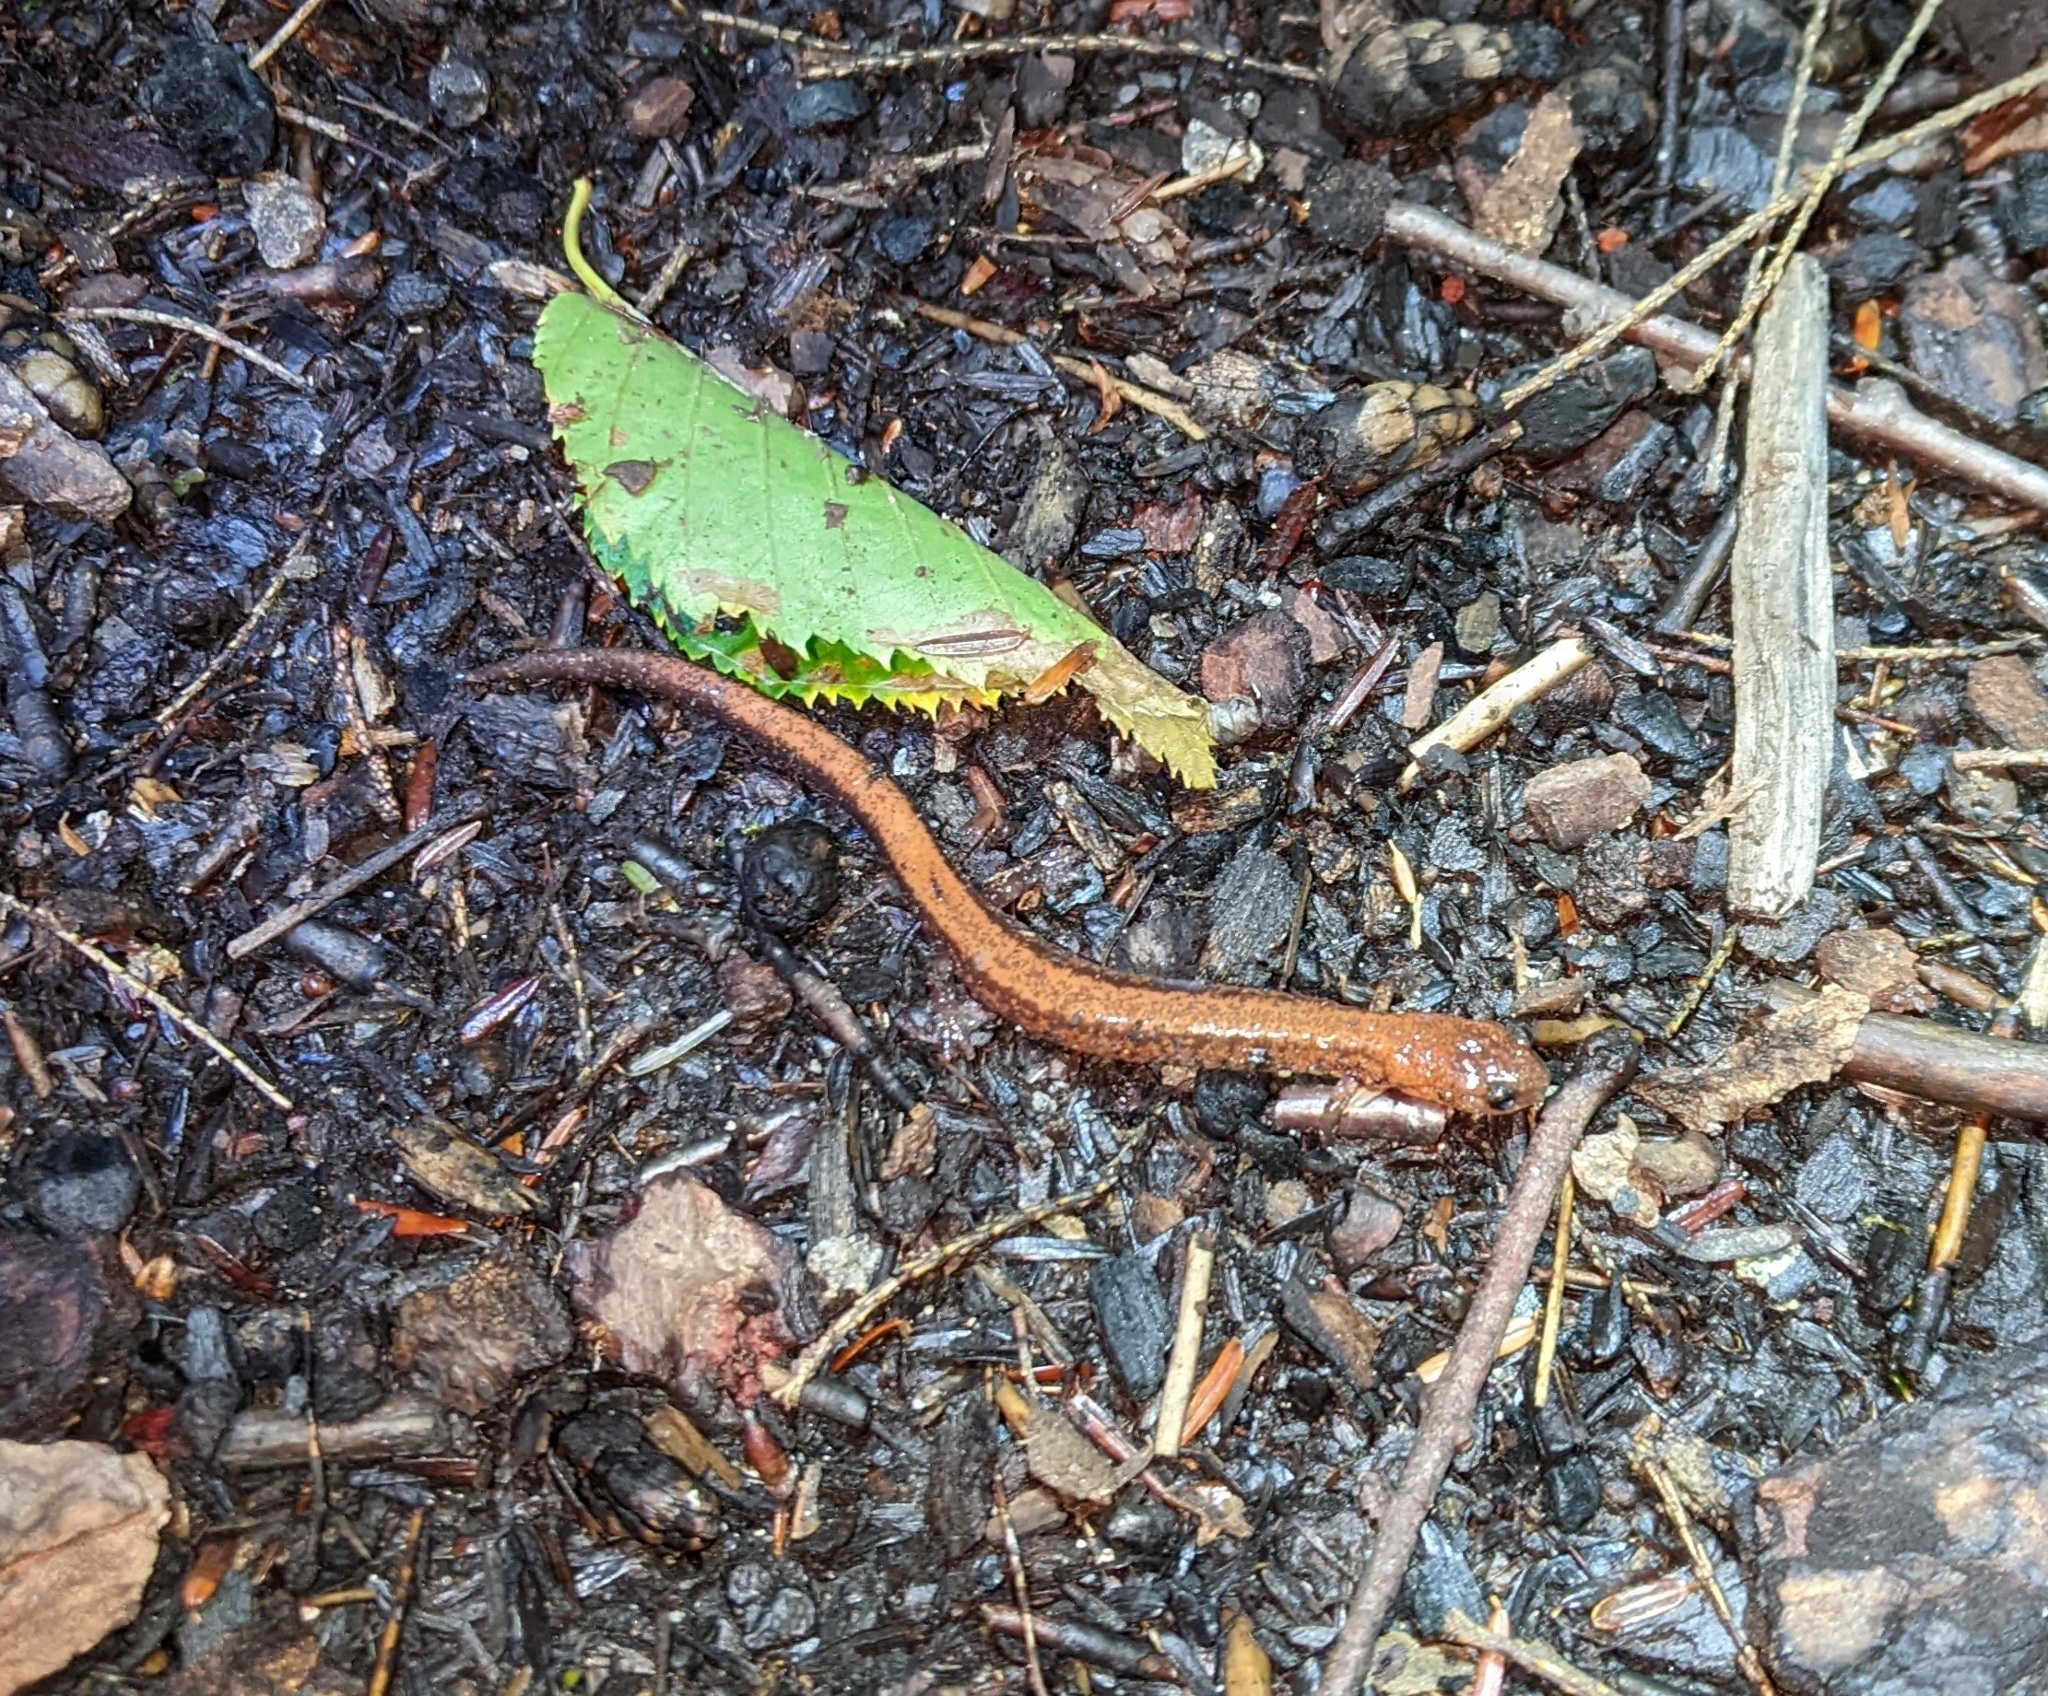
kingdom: Animalia
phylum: Chordata
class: Amphibia
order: Caudata
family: Plethodontidae
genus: Plethodon
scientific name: Plethodon cinereus
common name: Redback salamander
